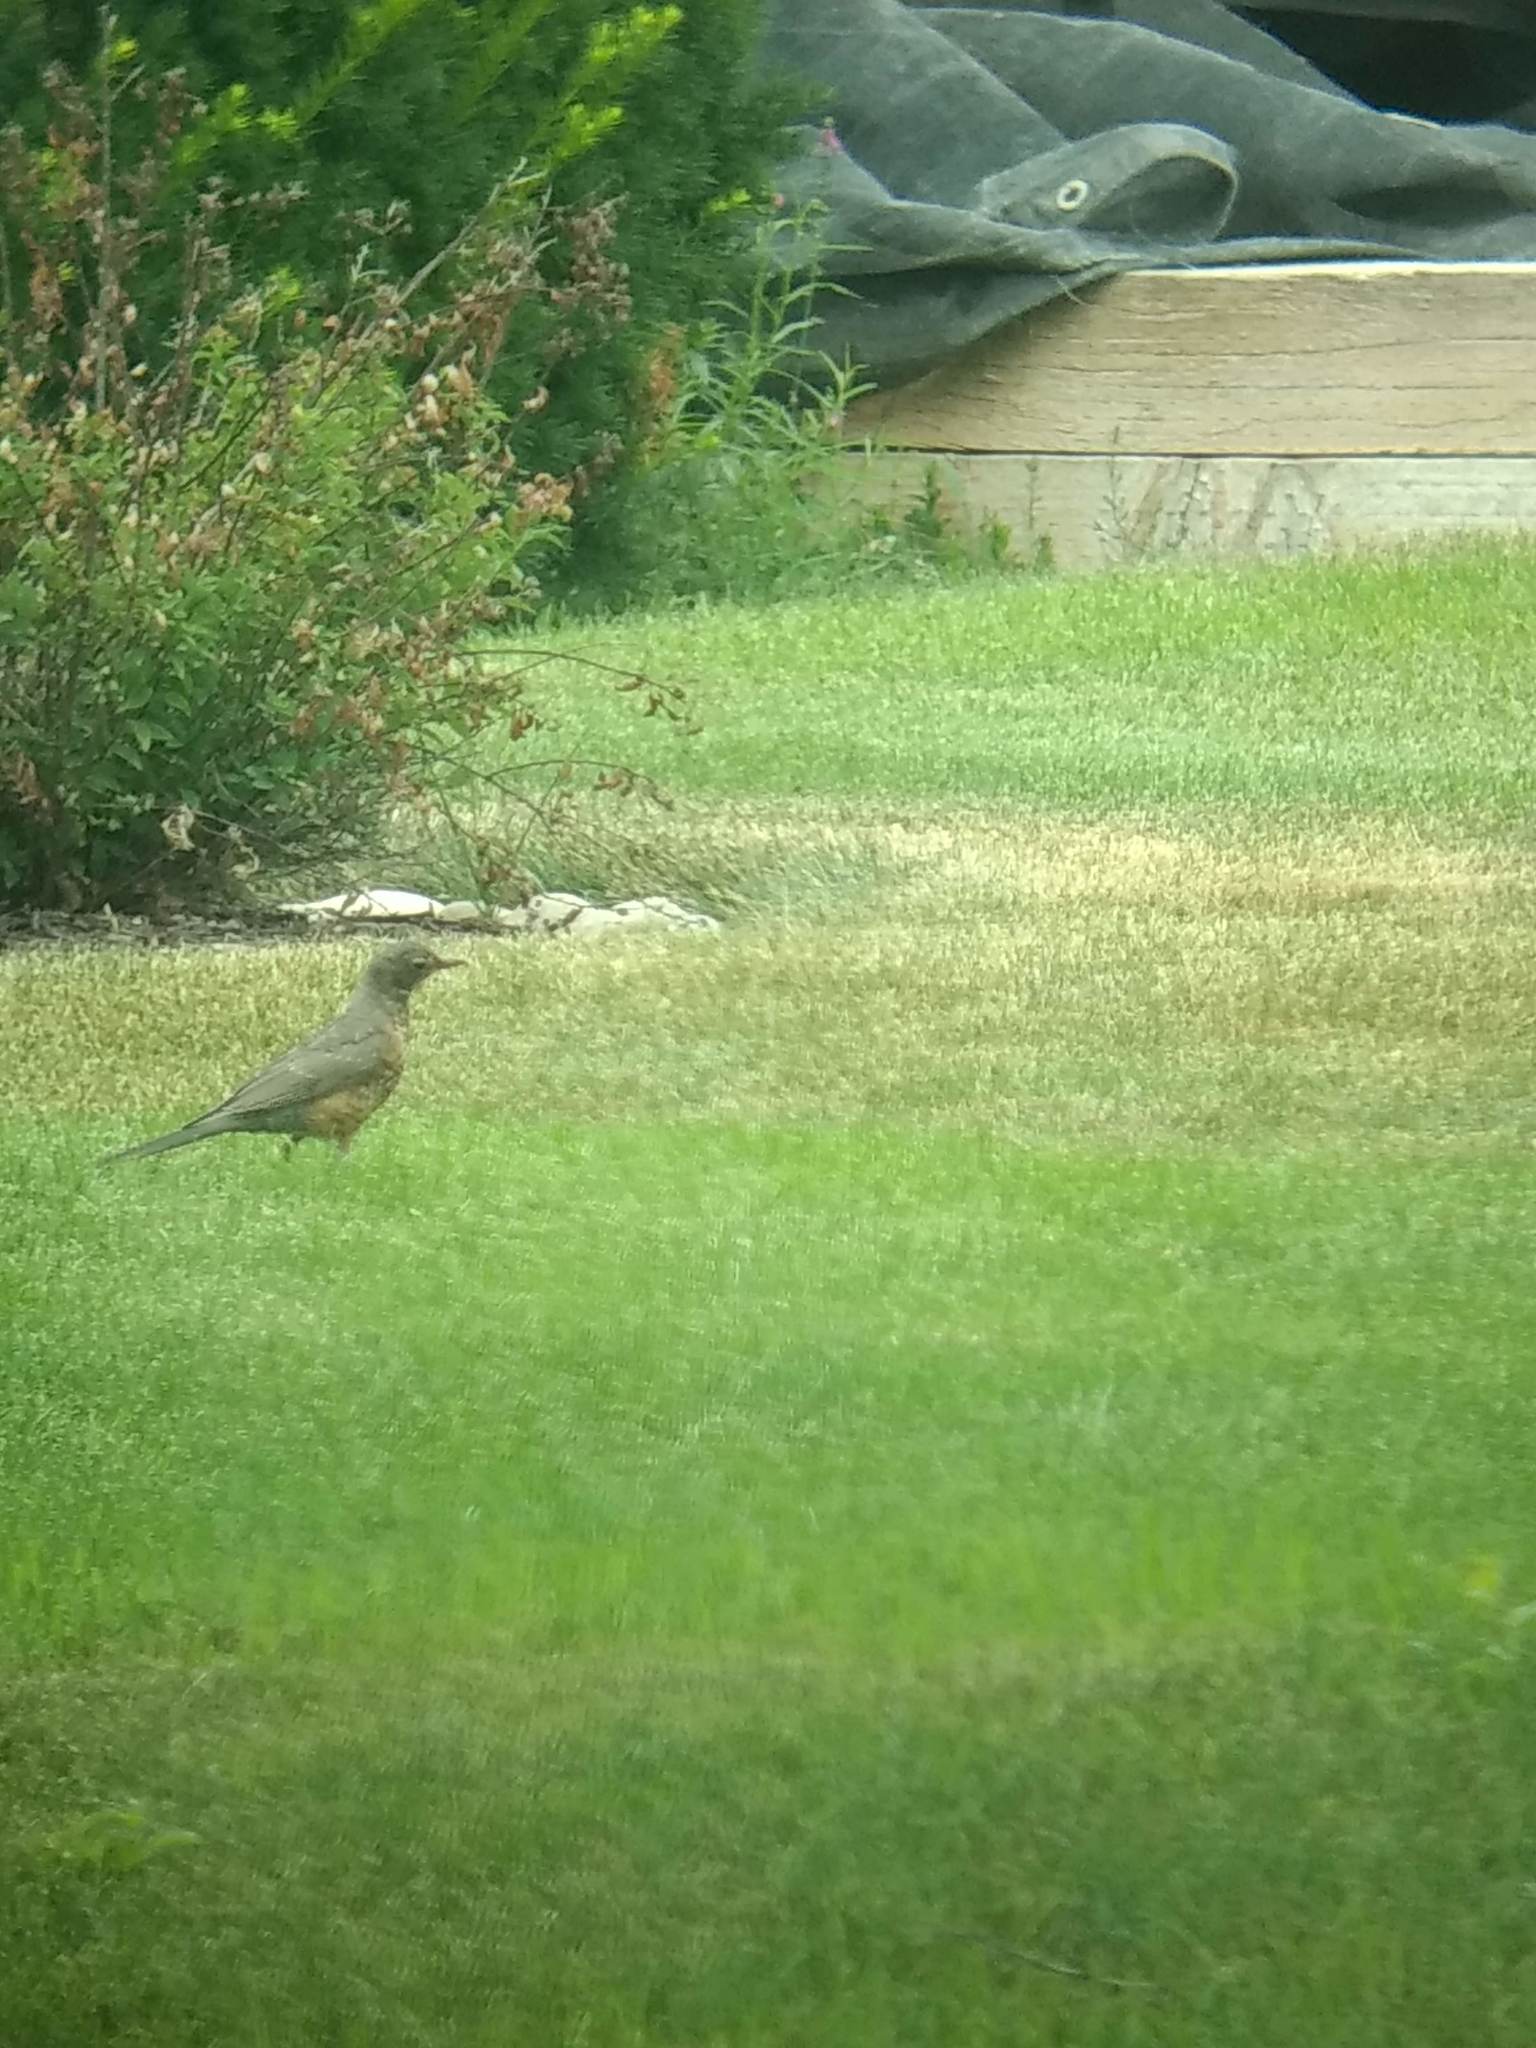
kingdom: Animalia
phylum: Chordata
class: Aves
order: Passeriformes
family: Turdidae
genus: Turdus
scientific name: Turdus migratorius
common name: American robin
